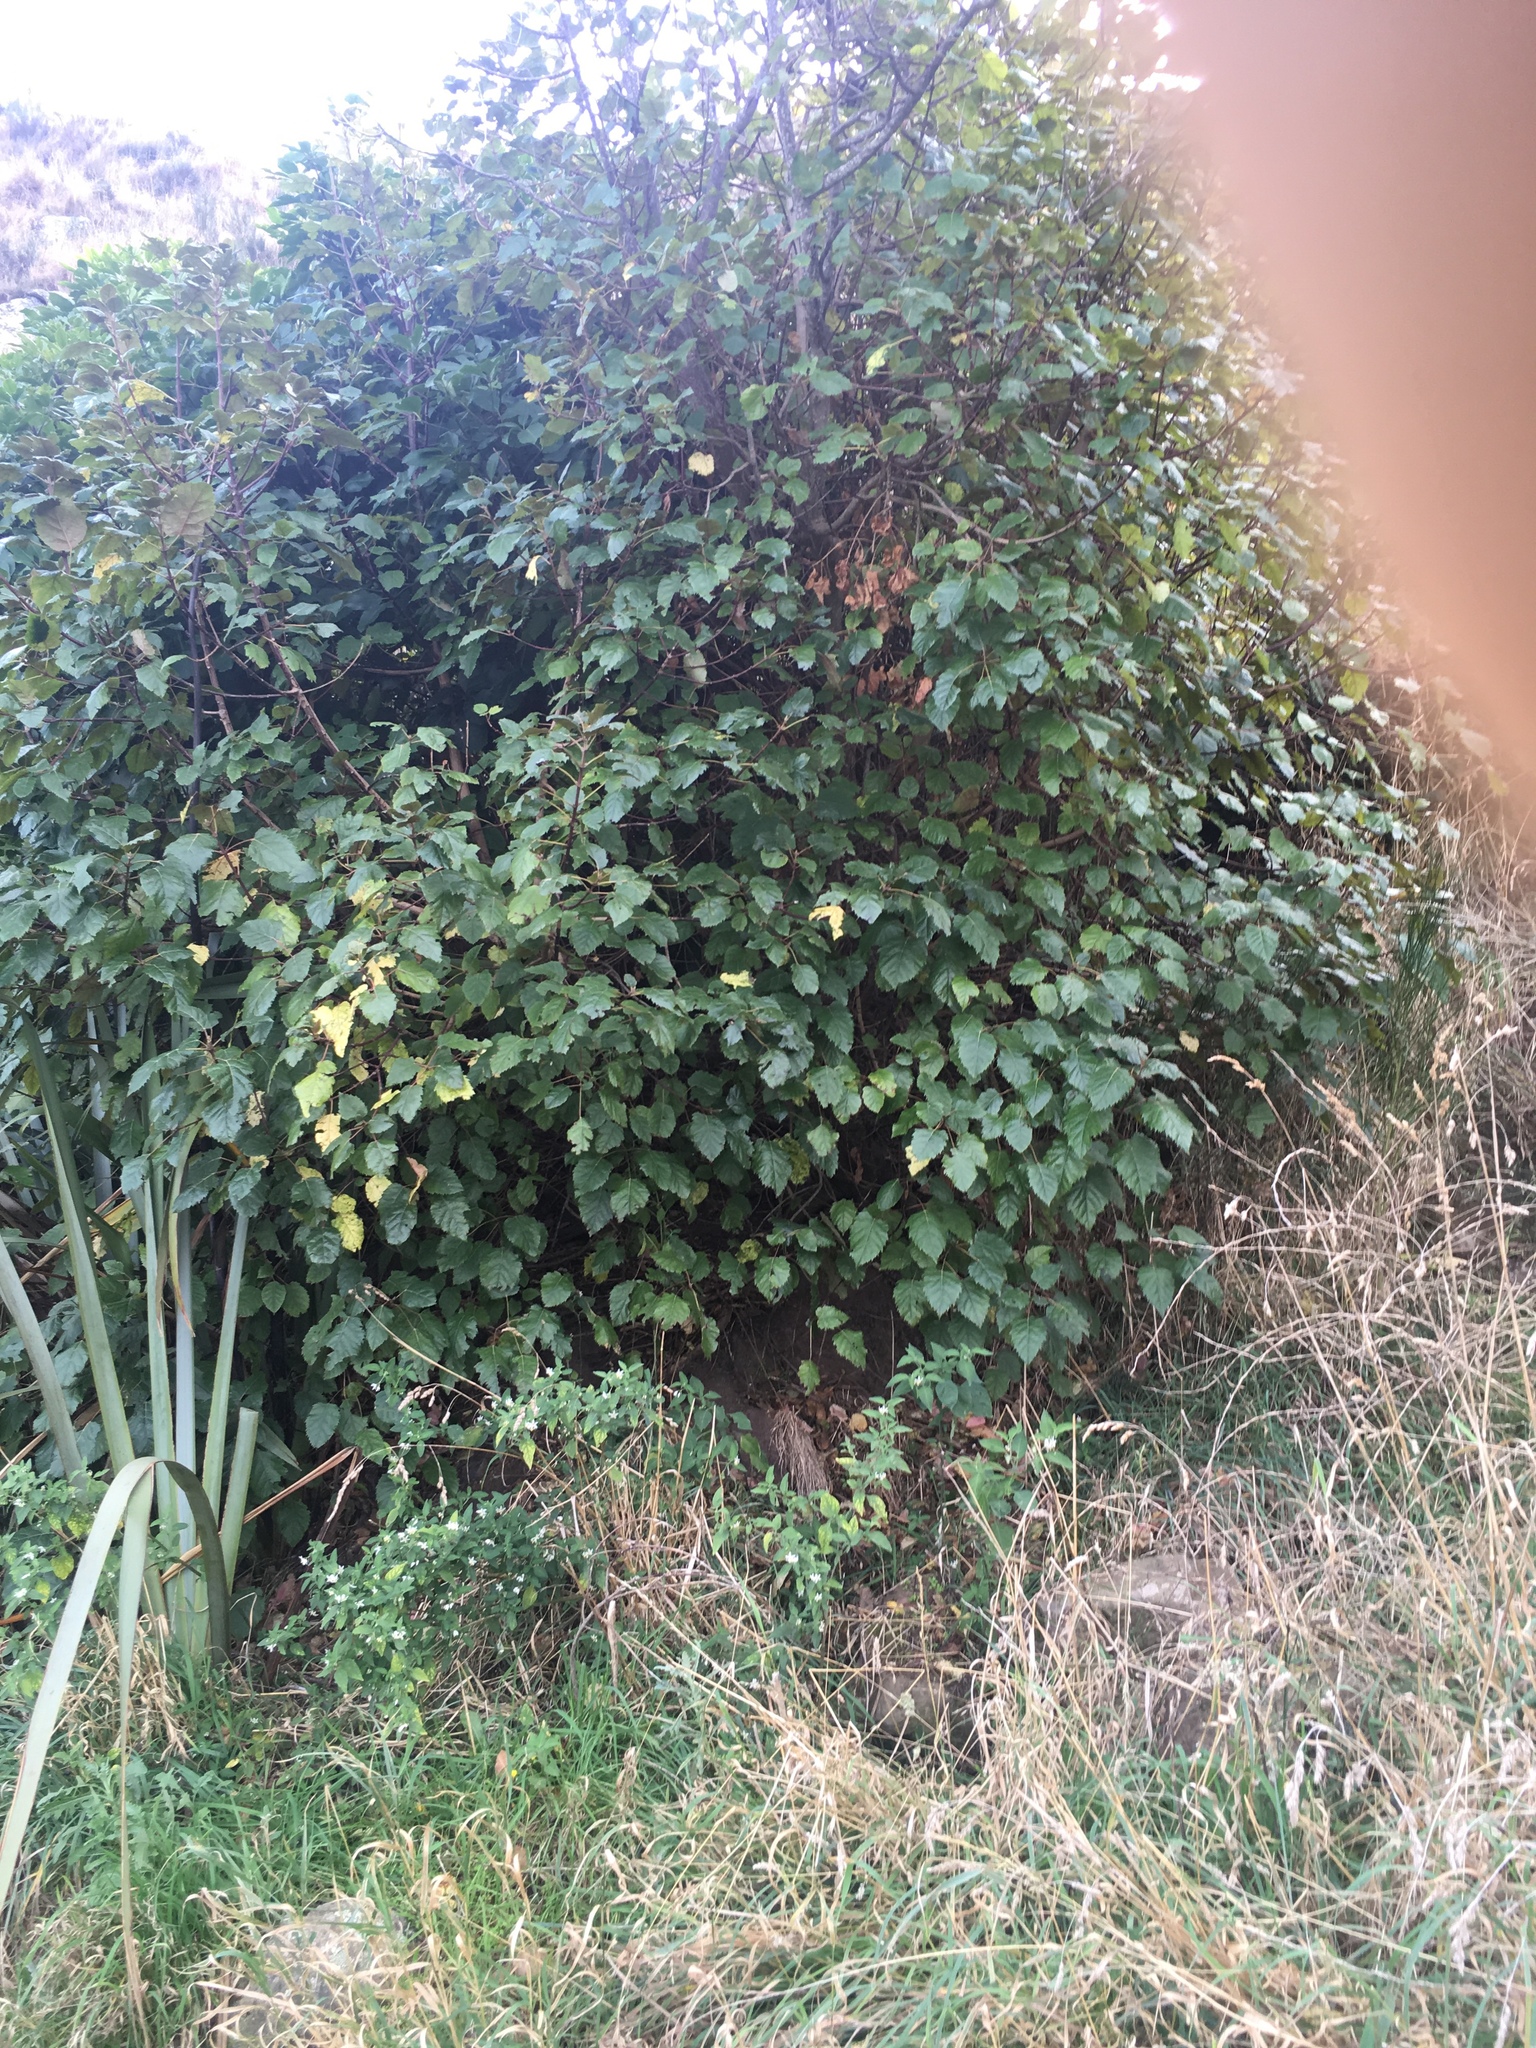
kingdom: Plantae
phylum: Tracheophyta
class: Magnoliopsida
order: Oxalidales
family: Elaeocarpaceae
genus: Aristotelia
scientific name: Aristotelia serrata
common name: New zealand wineberry
